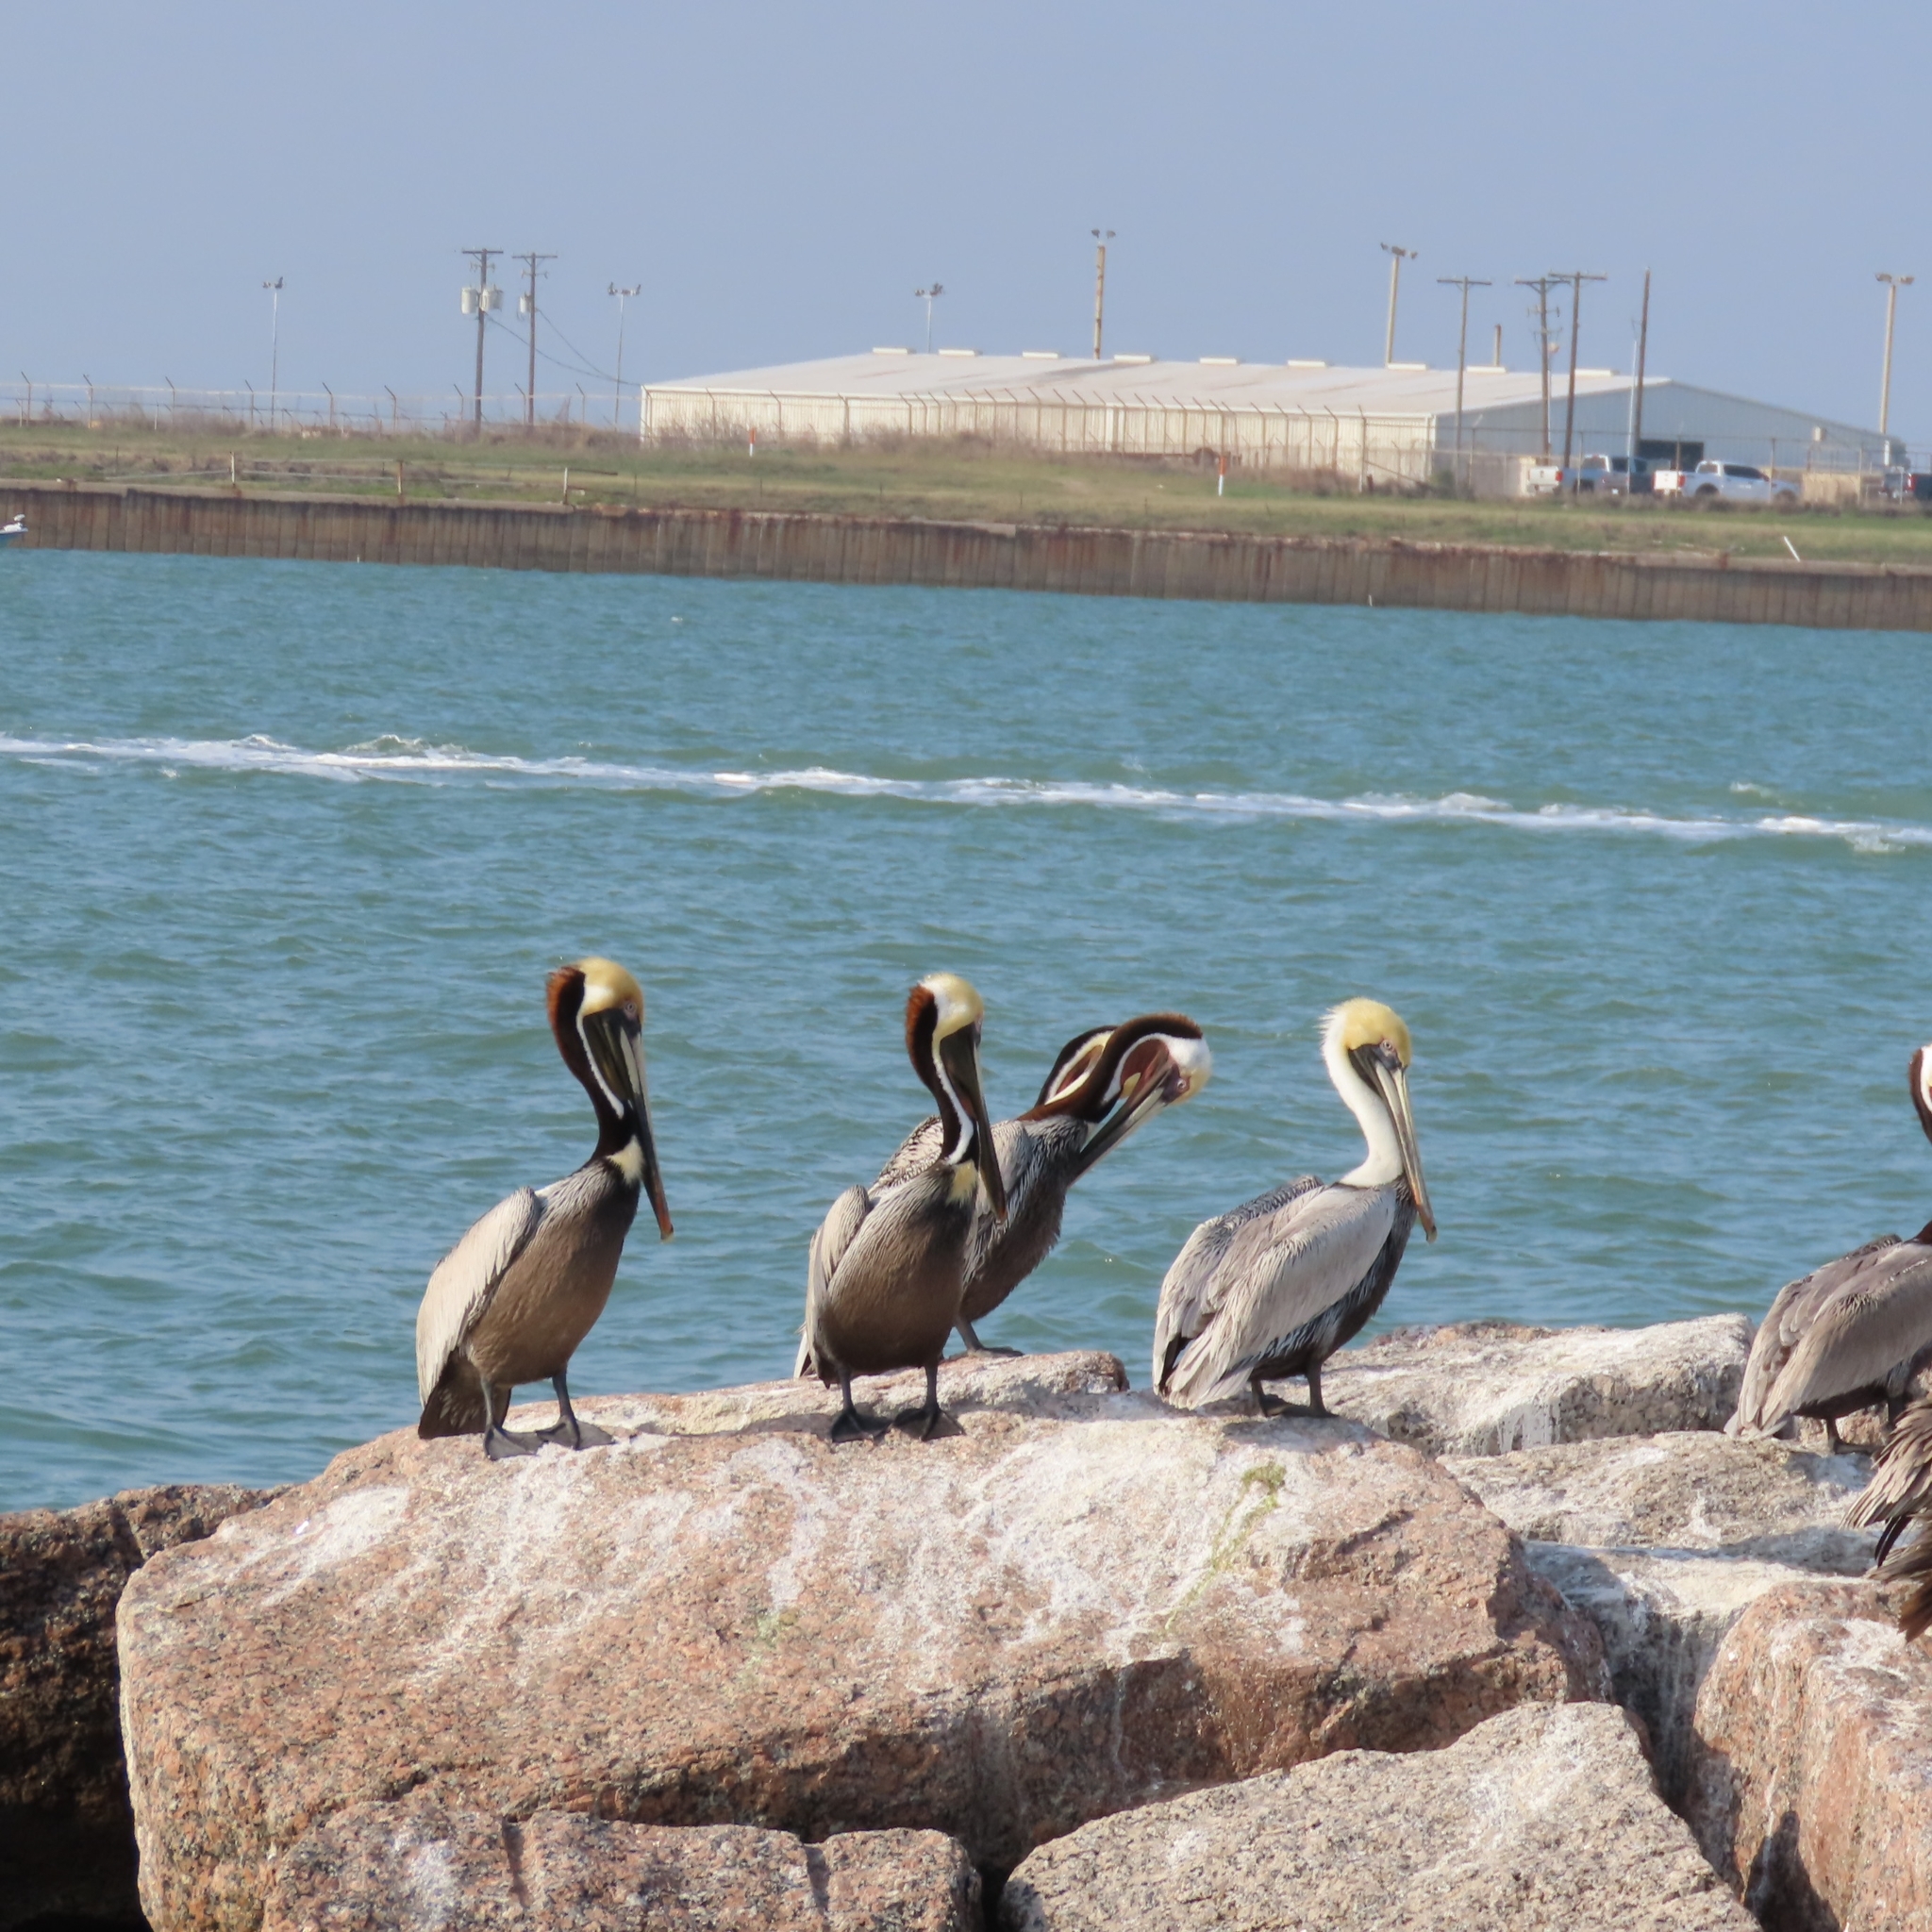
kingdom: Animalia
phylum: Chordata
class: Aves
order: Pelecaniformes
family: Pelecanidae
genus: Pelecanus
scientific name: Pelecanus occidentalis
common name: Brown pelican
